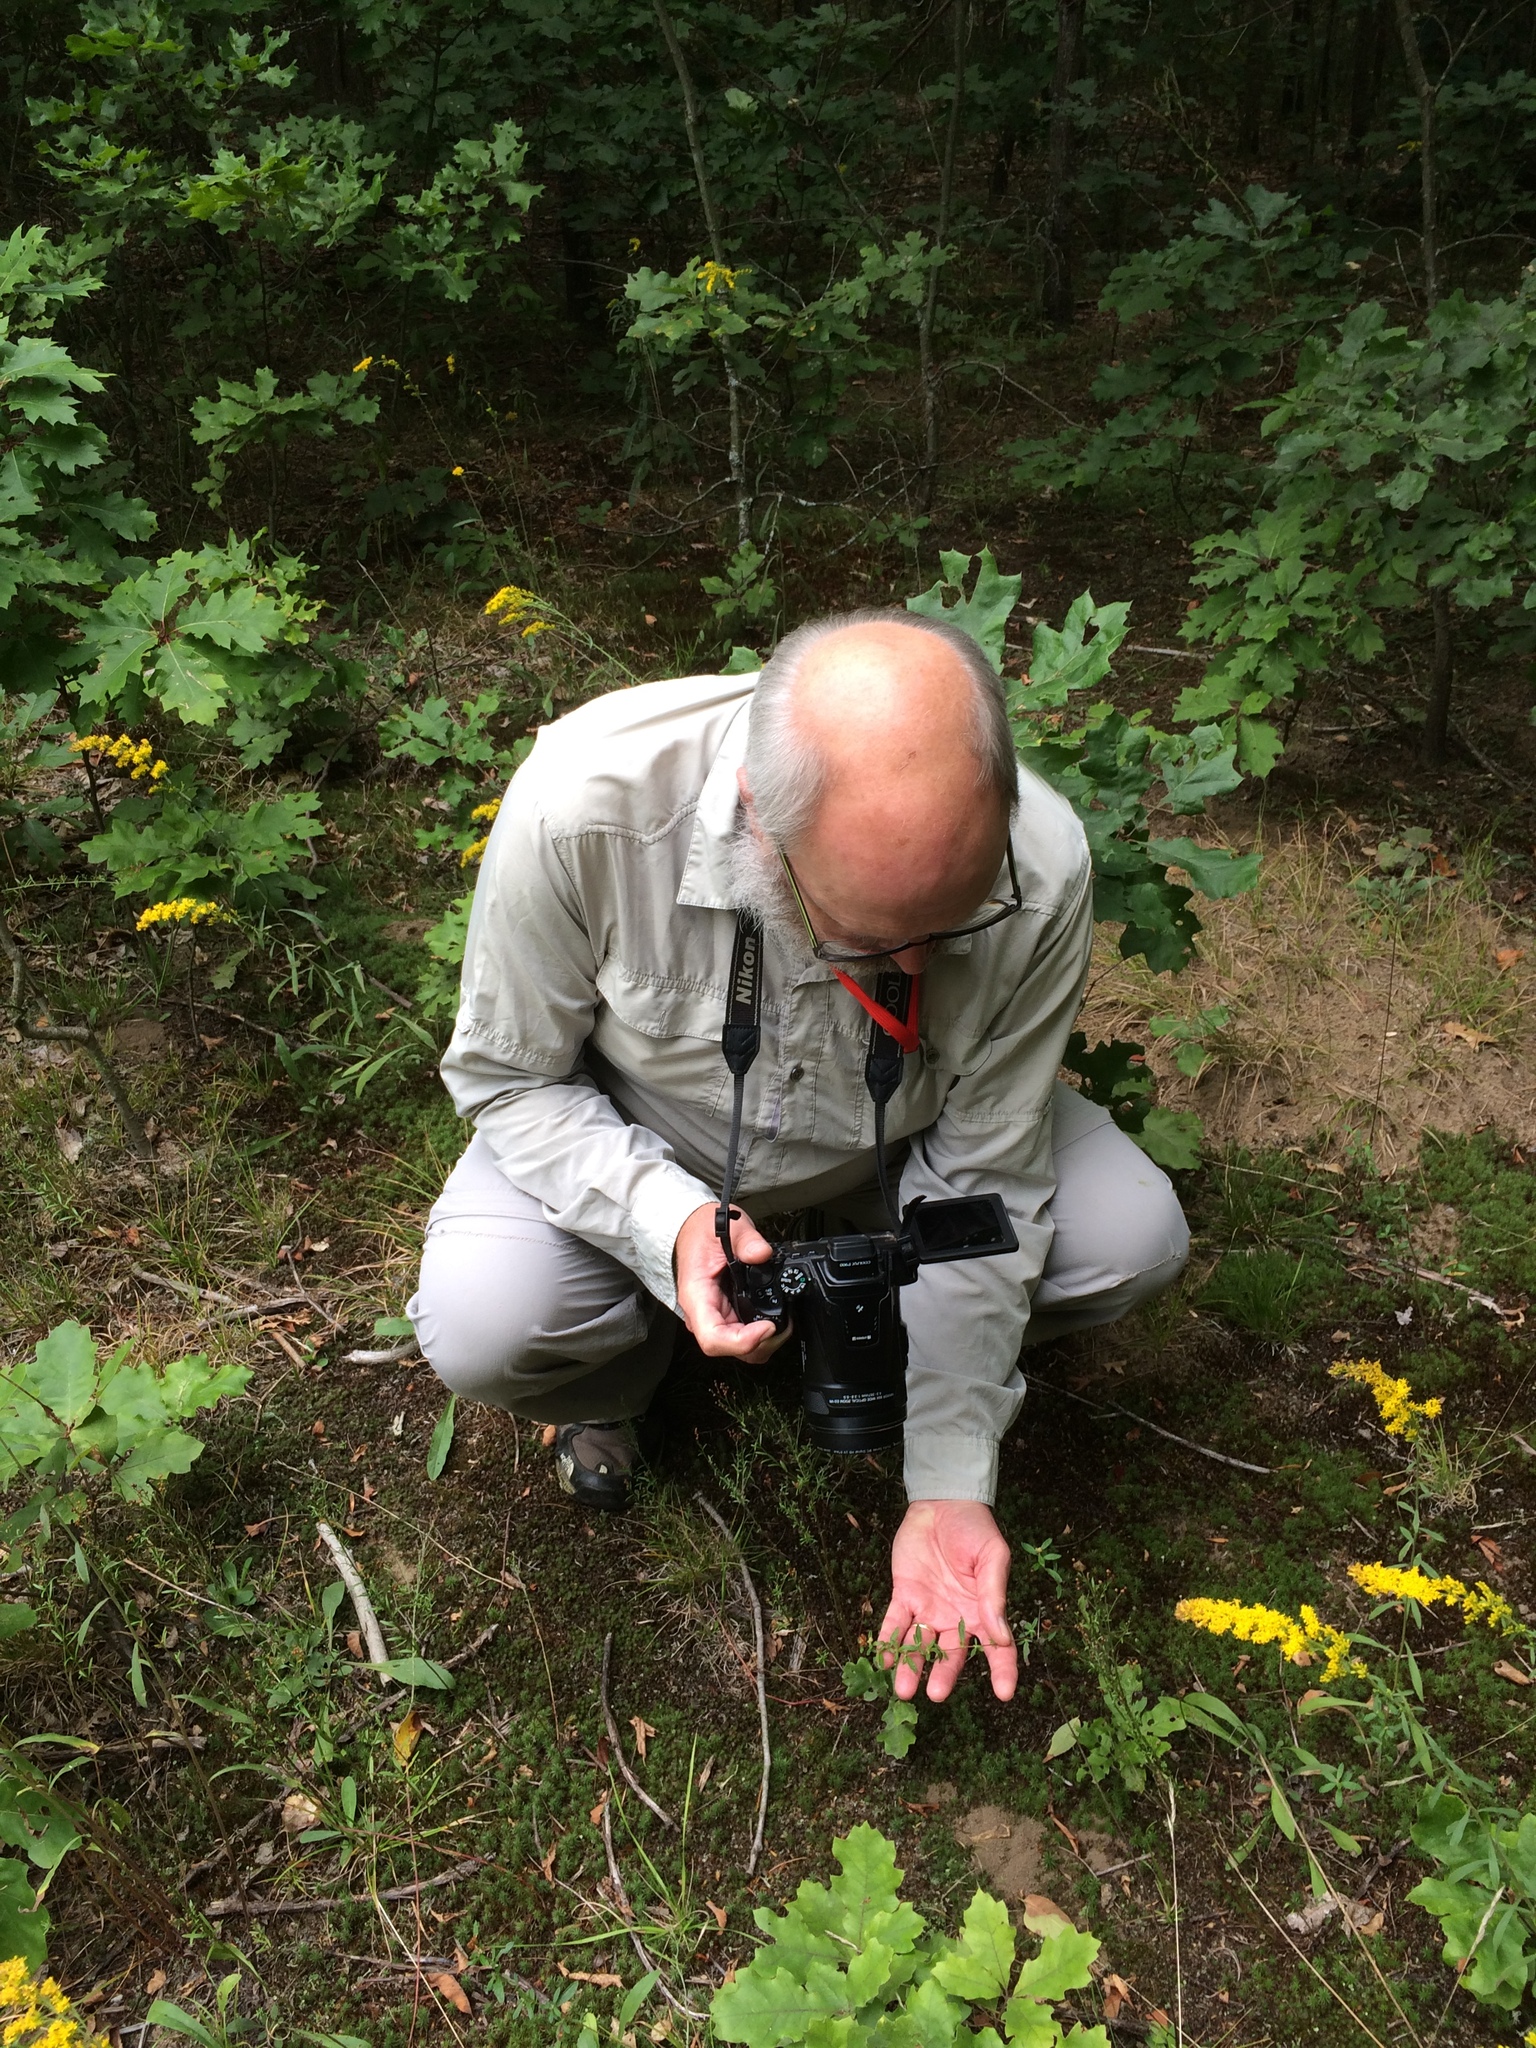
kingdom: Plantae
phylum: Tracheophyta
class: Magnoliopsida
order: Malvales
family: Cistaceae
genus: Crocanthemum
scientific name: Crocanthemum canadense
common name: Canada frostweed
